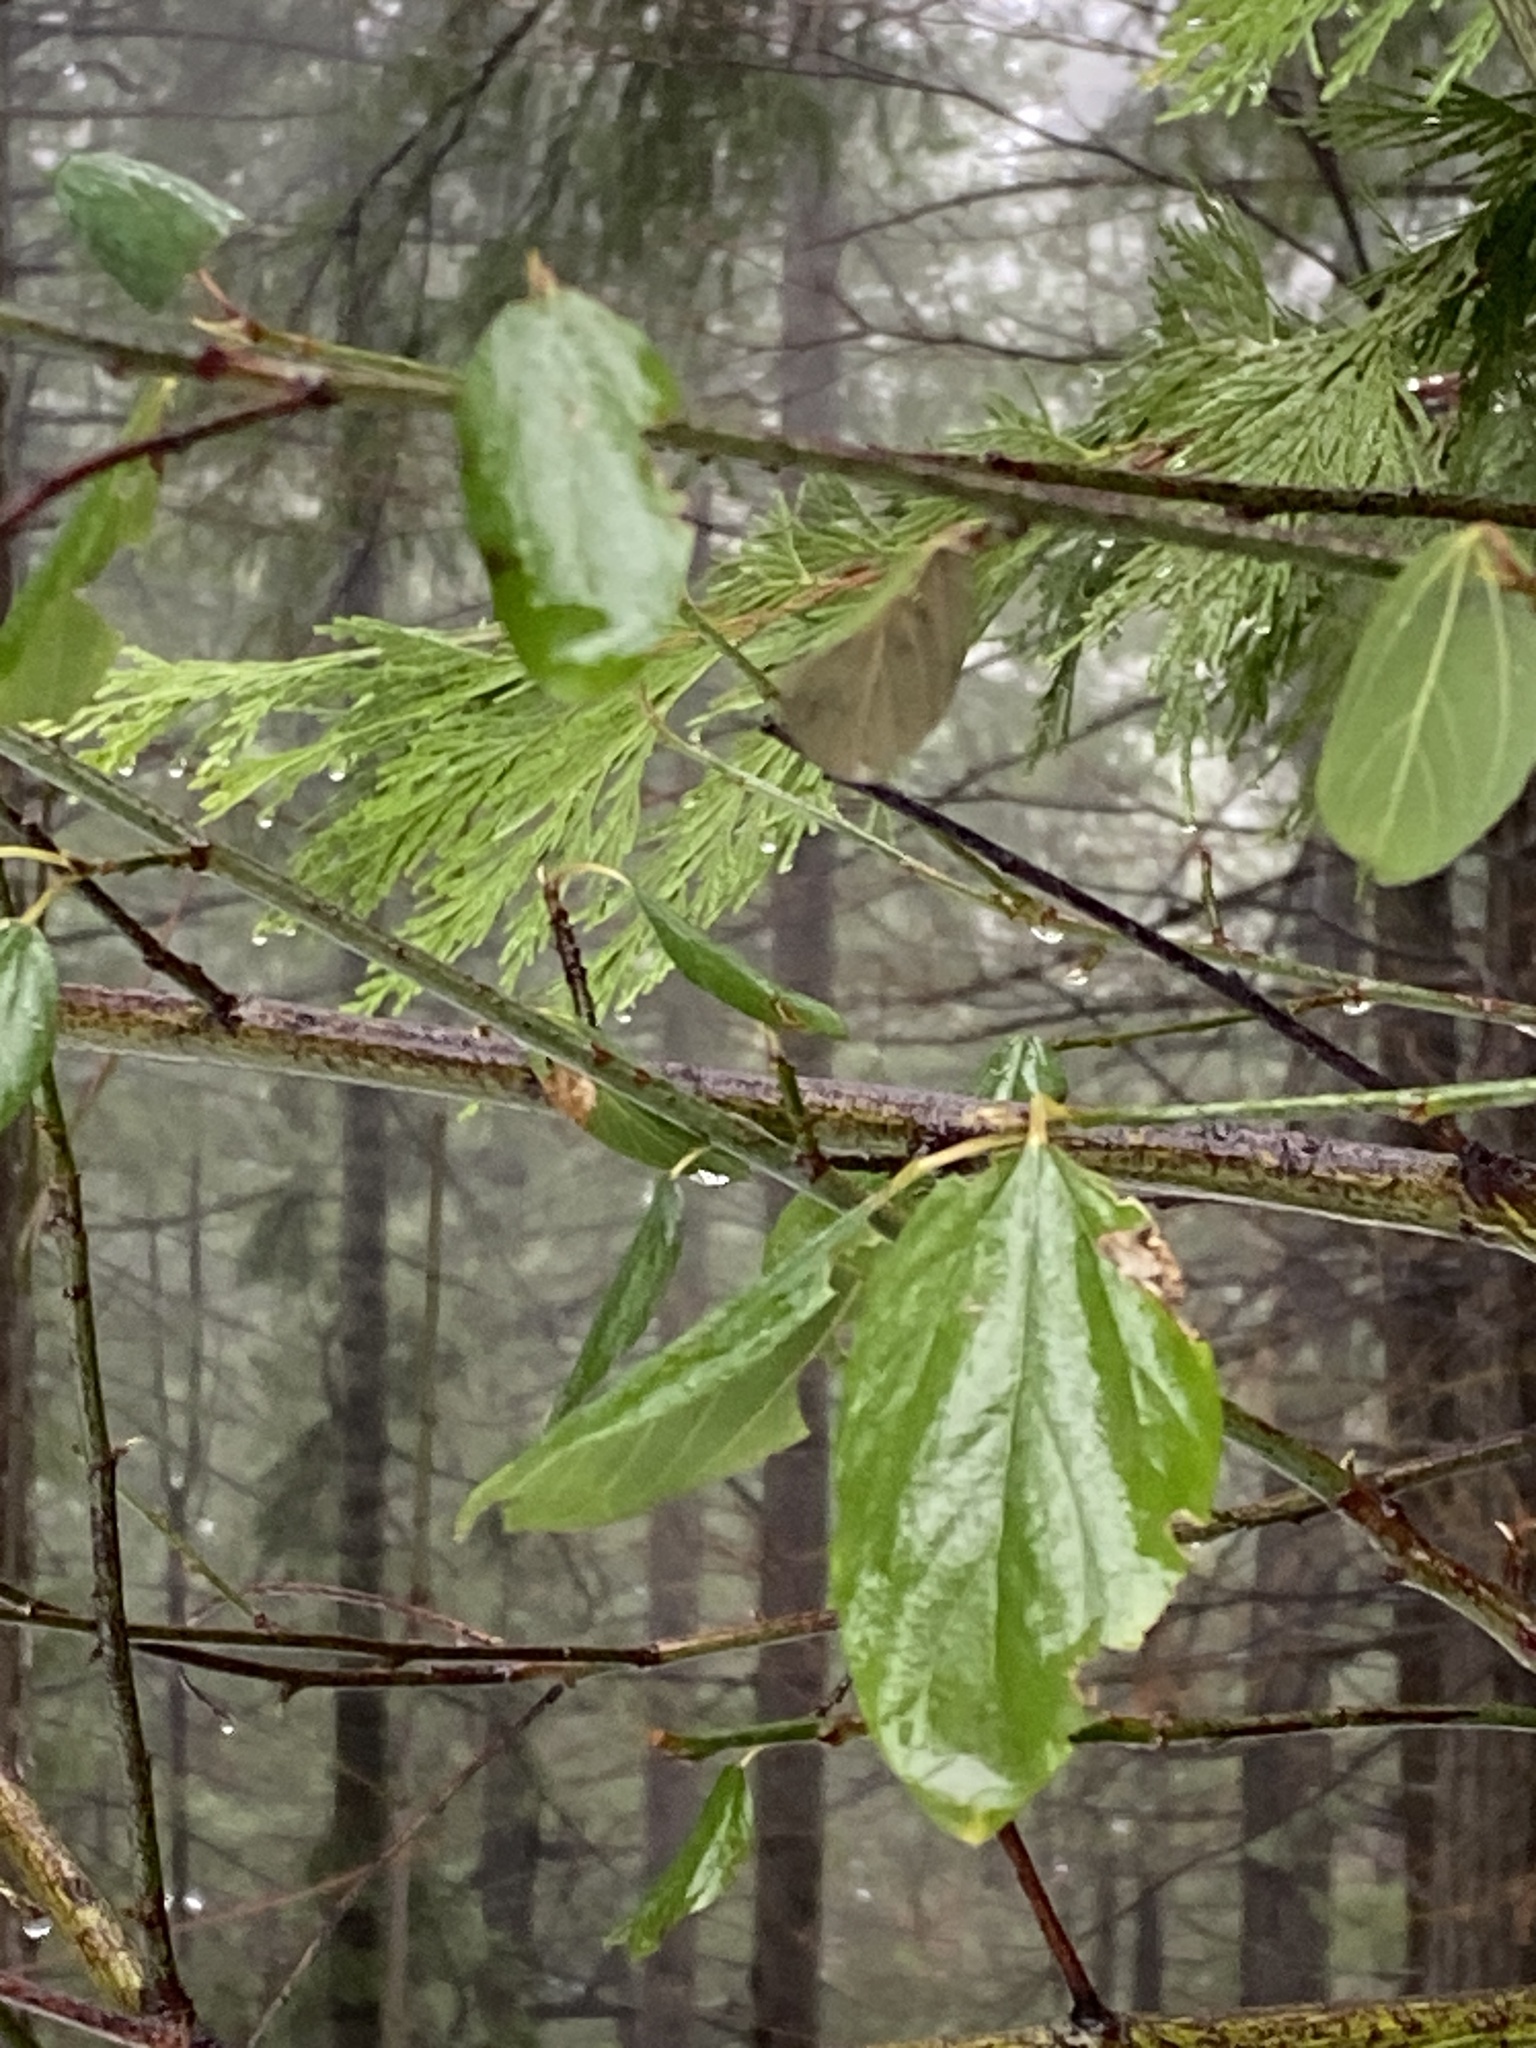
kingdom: Plantae
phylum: Tracheophyta
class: Magnoliopsida
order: Rosales
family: Rhamnaceae
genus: Ceanothus
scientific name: Ceanothus integerrimus
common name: Deerbrush ceanothus
